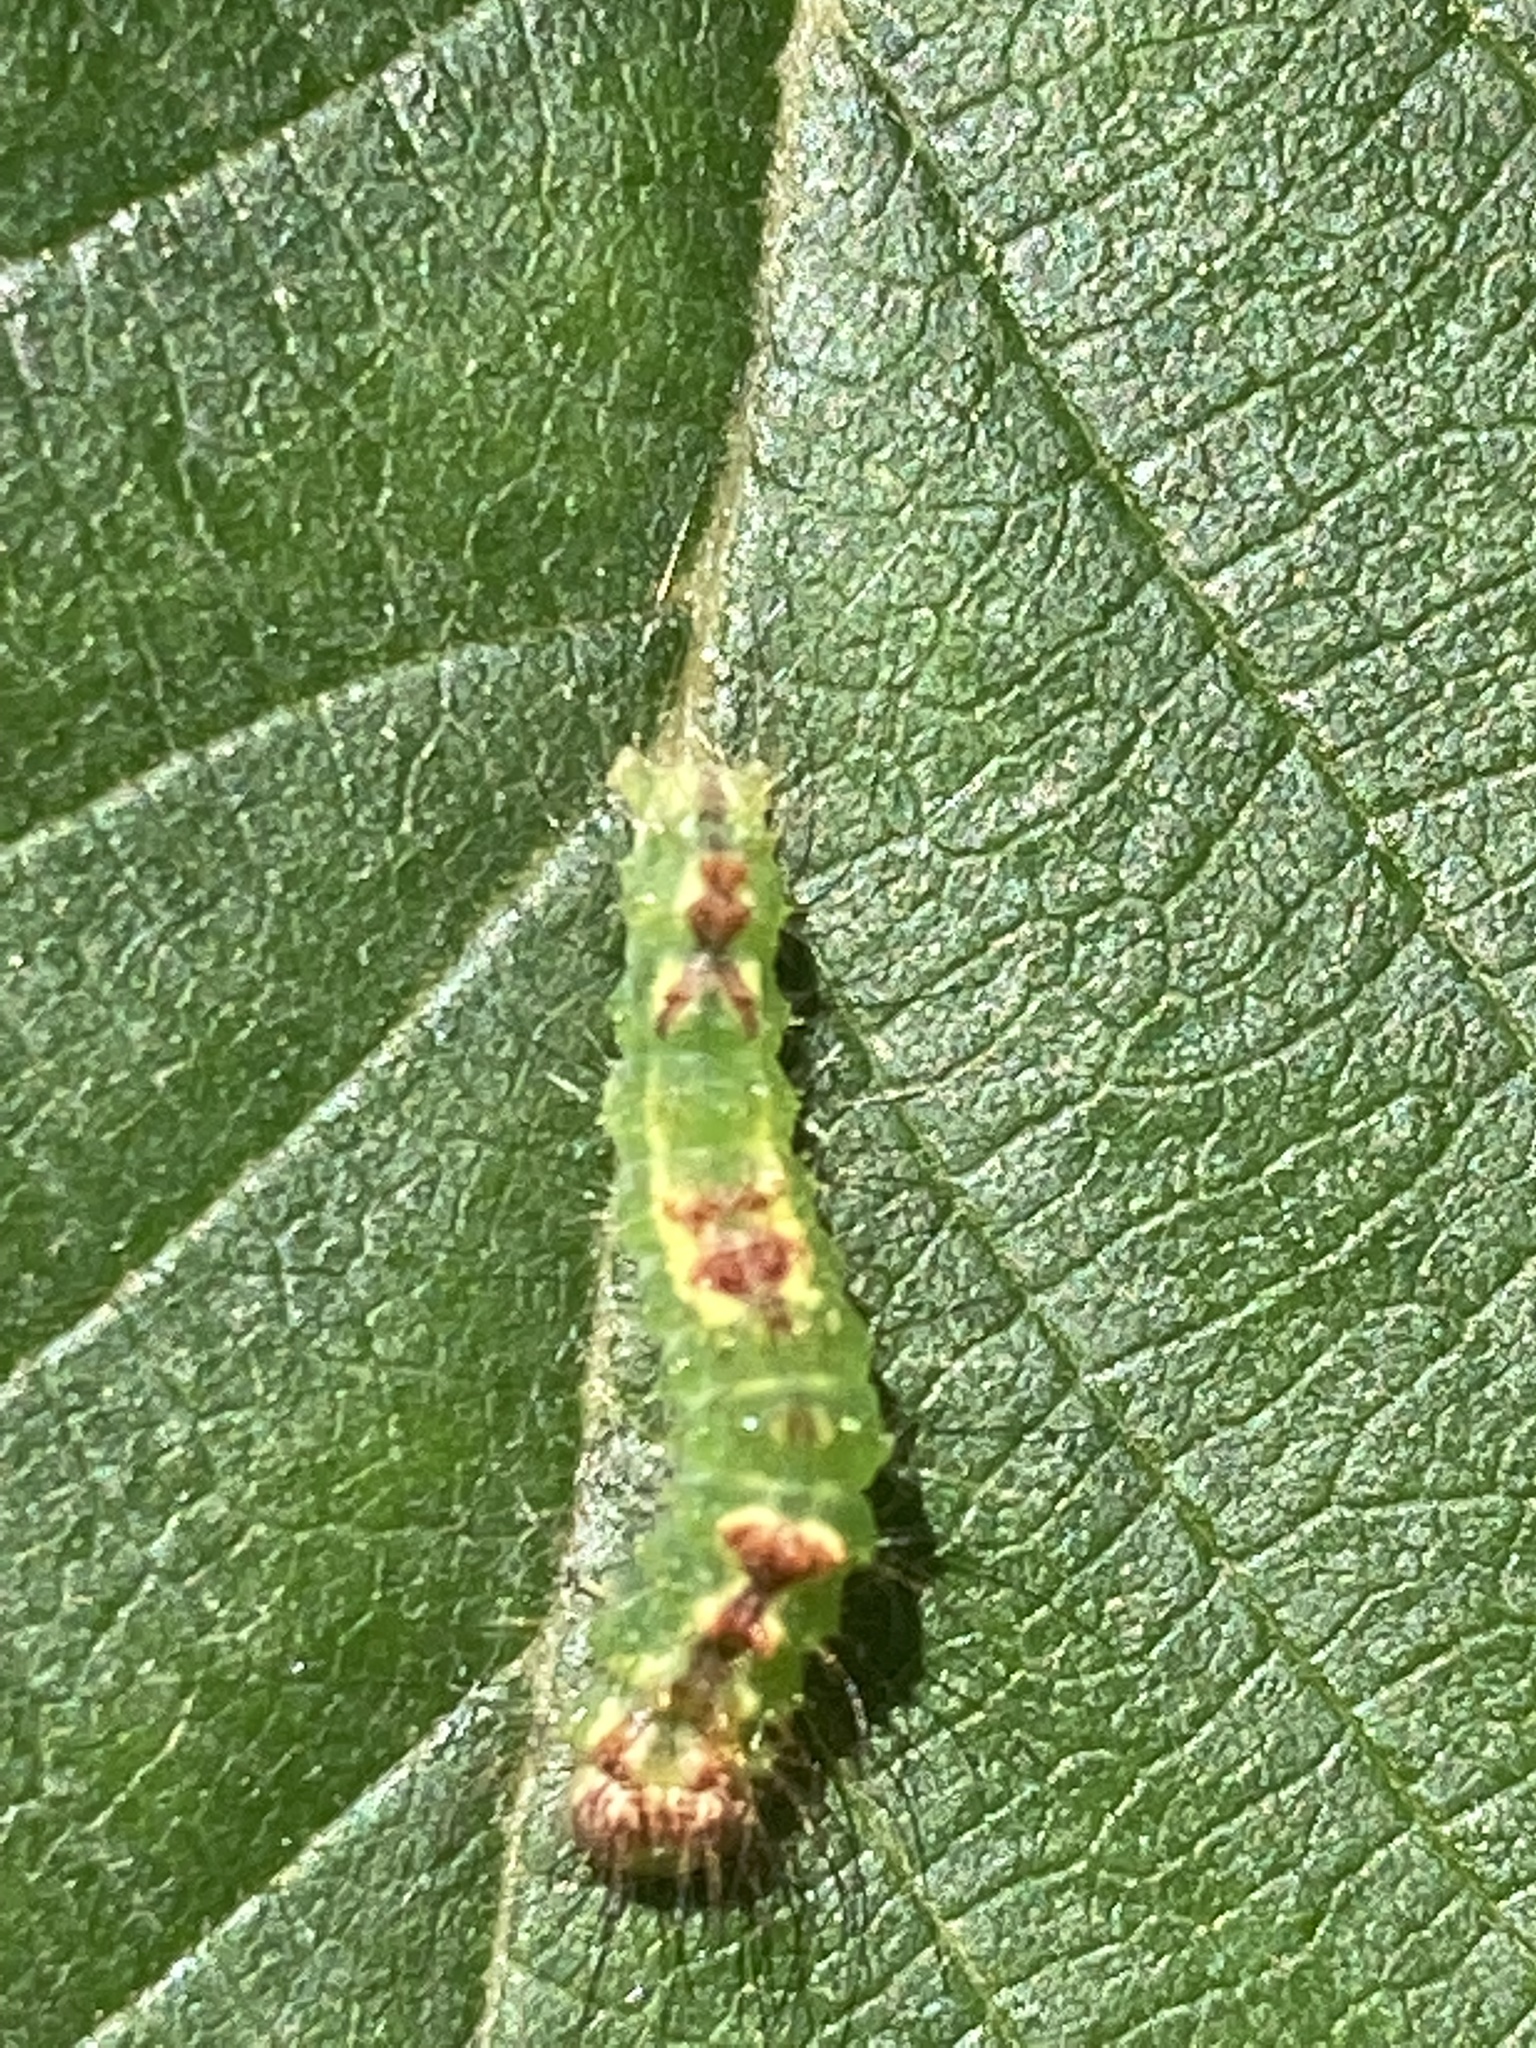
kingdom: Animalia
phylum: Arthropoda
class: Insecta
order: Lepidoptera
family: Noctuidae
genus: Acronicta
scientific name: Acronicta grisea
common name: Gray dagger
